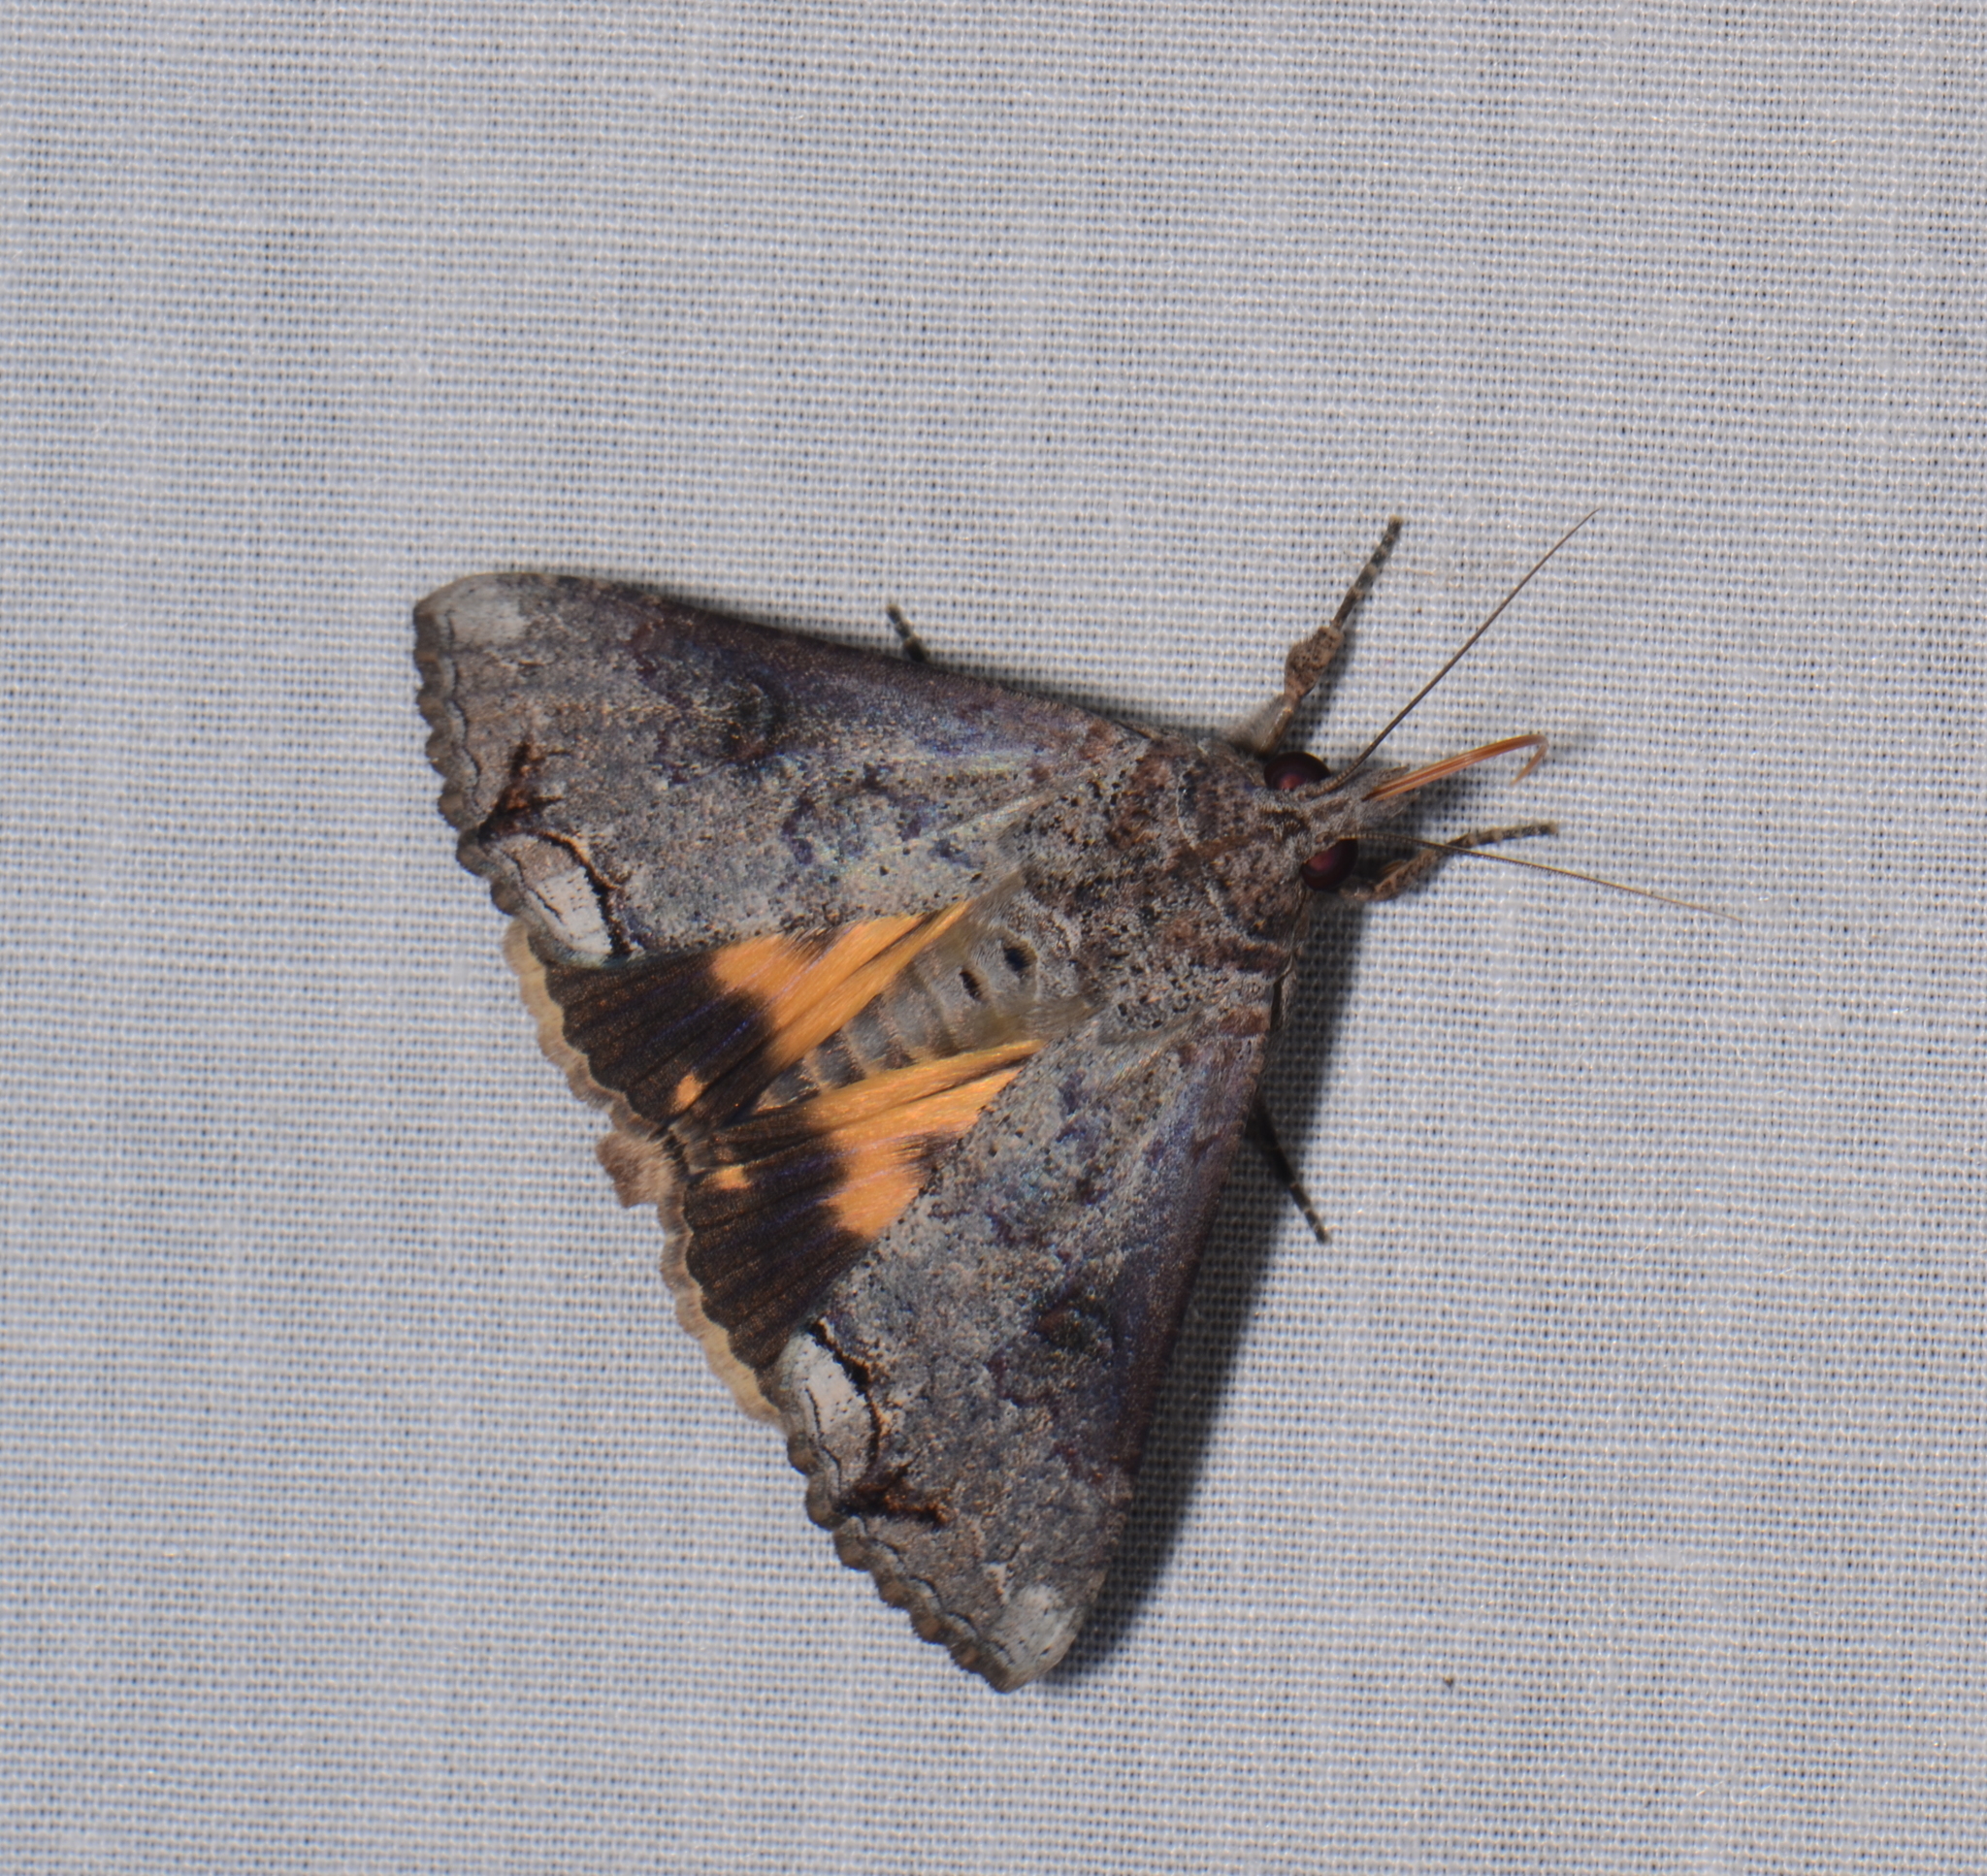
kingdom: Animalia
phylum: Arthropoda
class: Insecta
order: Lepidoptera
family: Erebidae
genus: Hypocala
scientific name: Hypocala deflorata
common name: Moth
